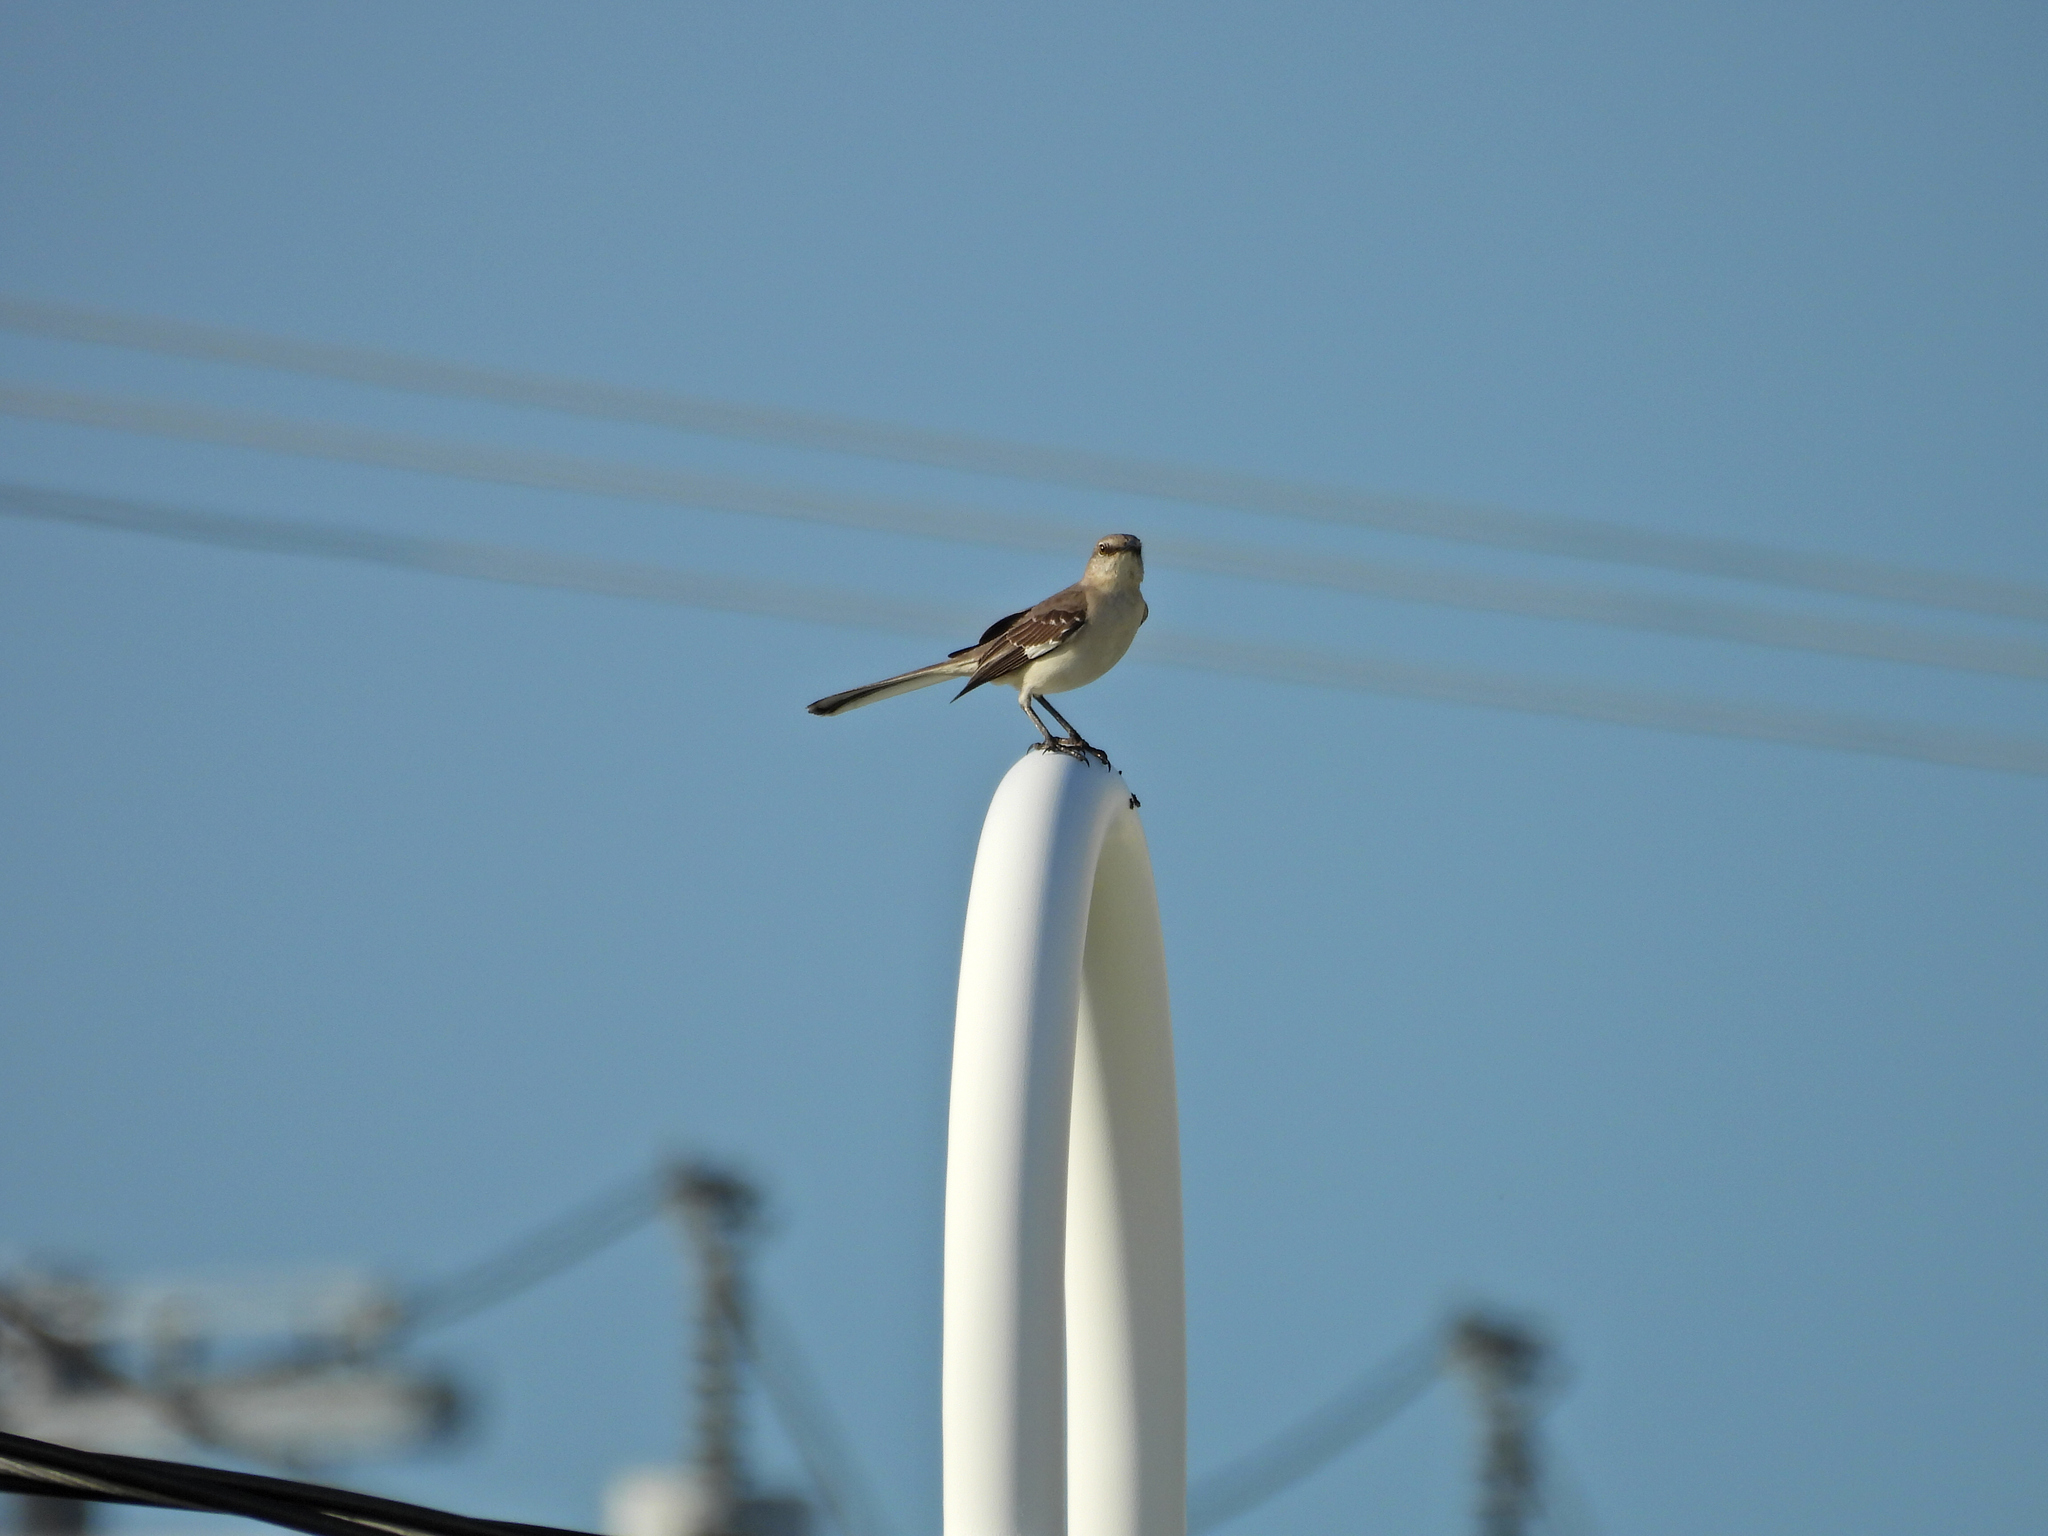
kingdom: Animalia
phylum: Chordata
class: Aves
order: Passeriformes
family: Mimidae
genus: Mimus
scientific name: Mimus polyglottos
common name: Northern mockingbird
